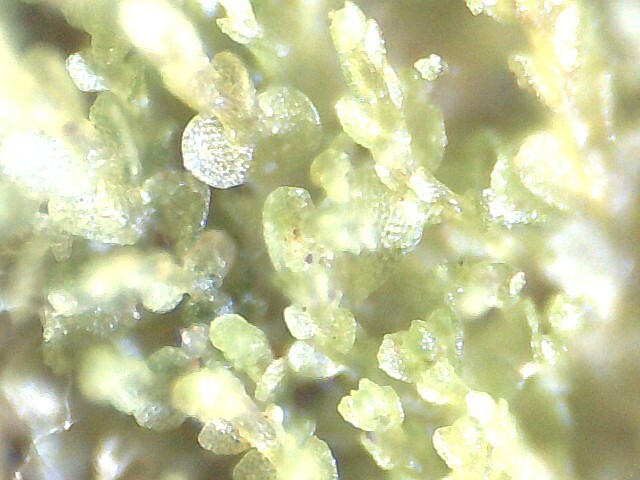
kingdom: Plantae
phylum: Marchantiophyta
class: Jungermanniopsida
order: Jungermanniales
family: Solenostomataceae
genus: Solenostoma
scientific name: Solenostoma gracillimum
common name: Crenulated flapwort
